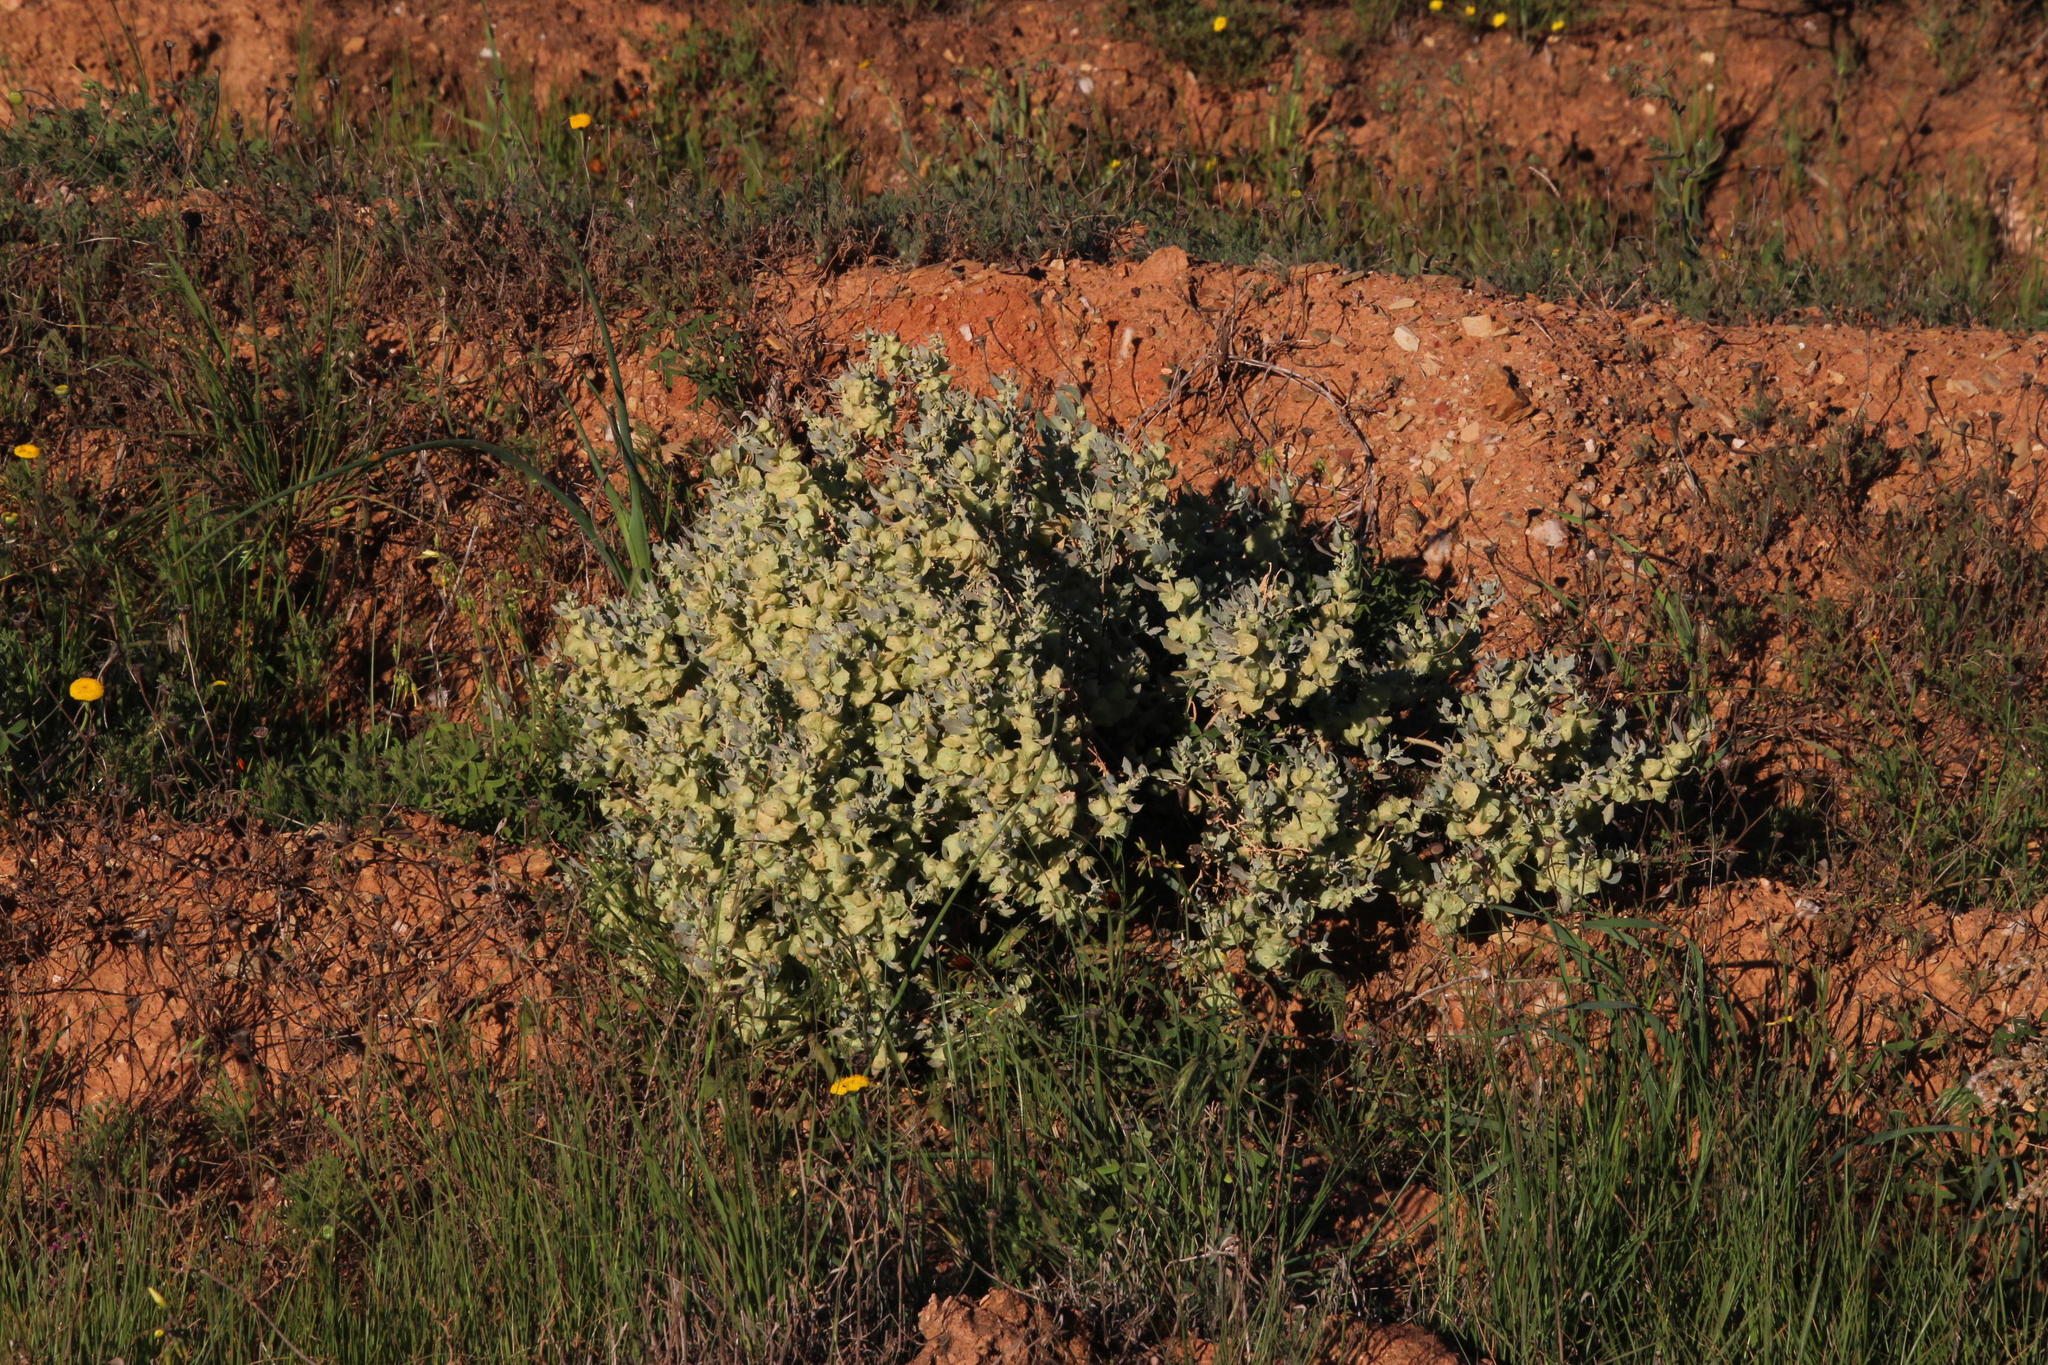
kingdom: Plantae
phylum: Tracheophyta
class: Magnoliopsida
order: Caryophyllales
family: Amaranthaceae
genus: Atriplex
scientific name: Atriplex lindleyi
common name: Lindley's saltbush
